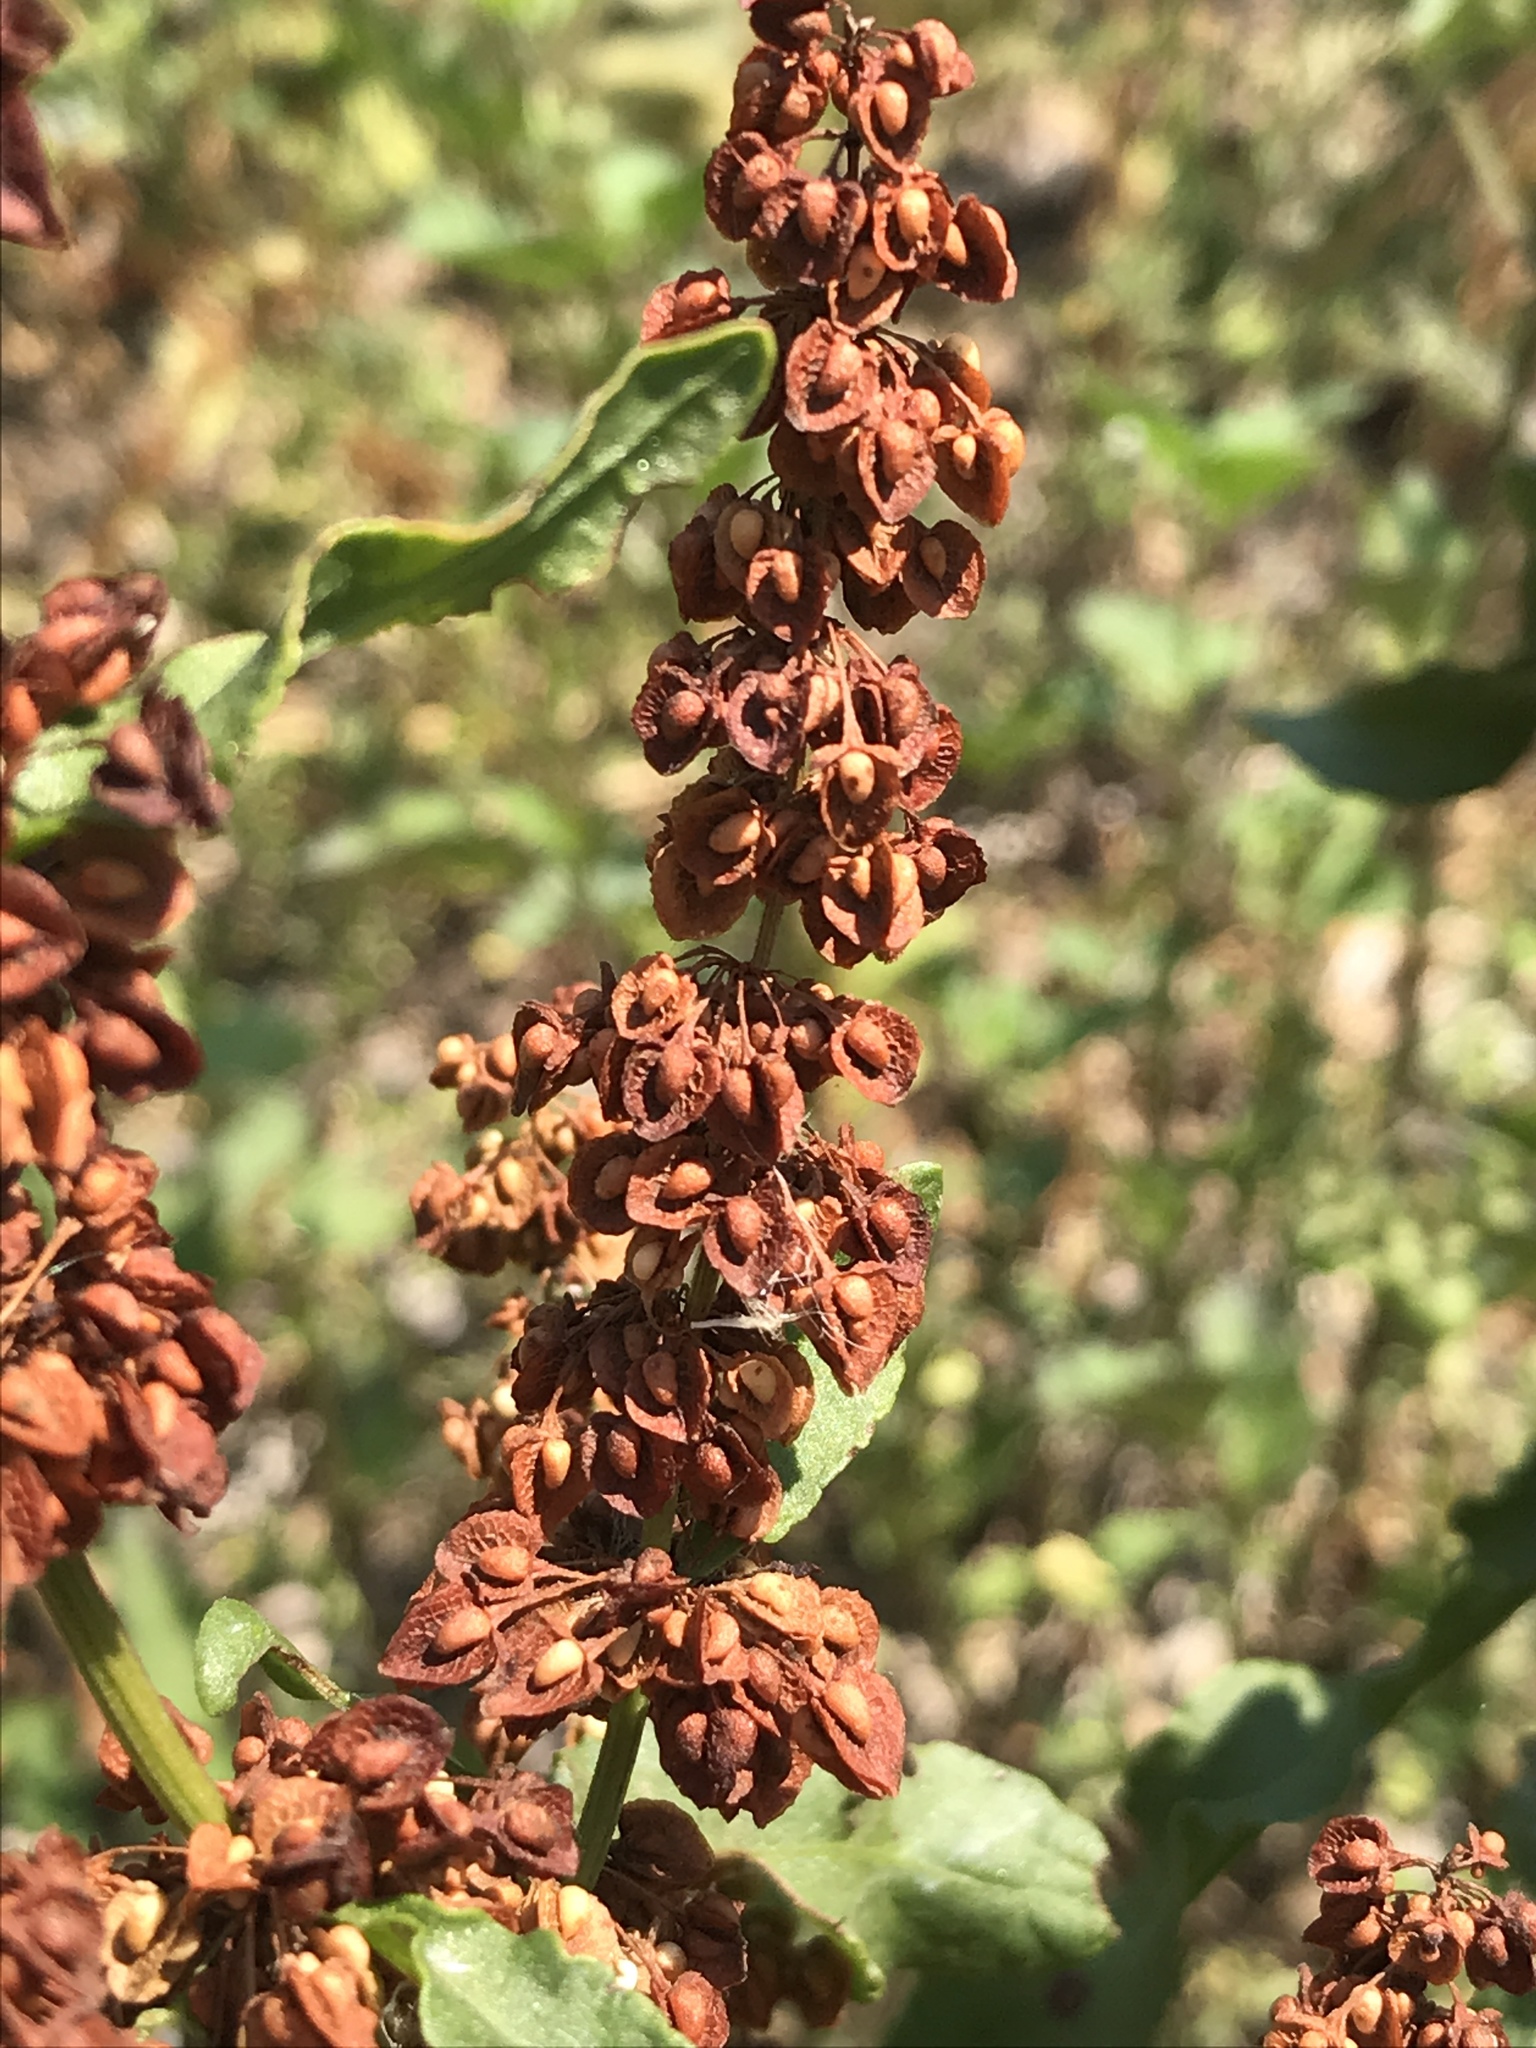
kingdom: Plantae
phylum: Tracheophyta
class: Magnoliopsida
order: Caryophyllales
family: Polygonaceae
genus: Rumex
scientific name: Rumex crispus
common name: Curled dock
